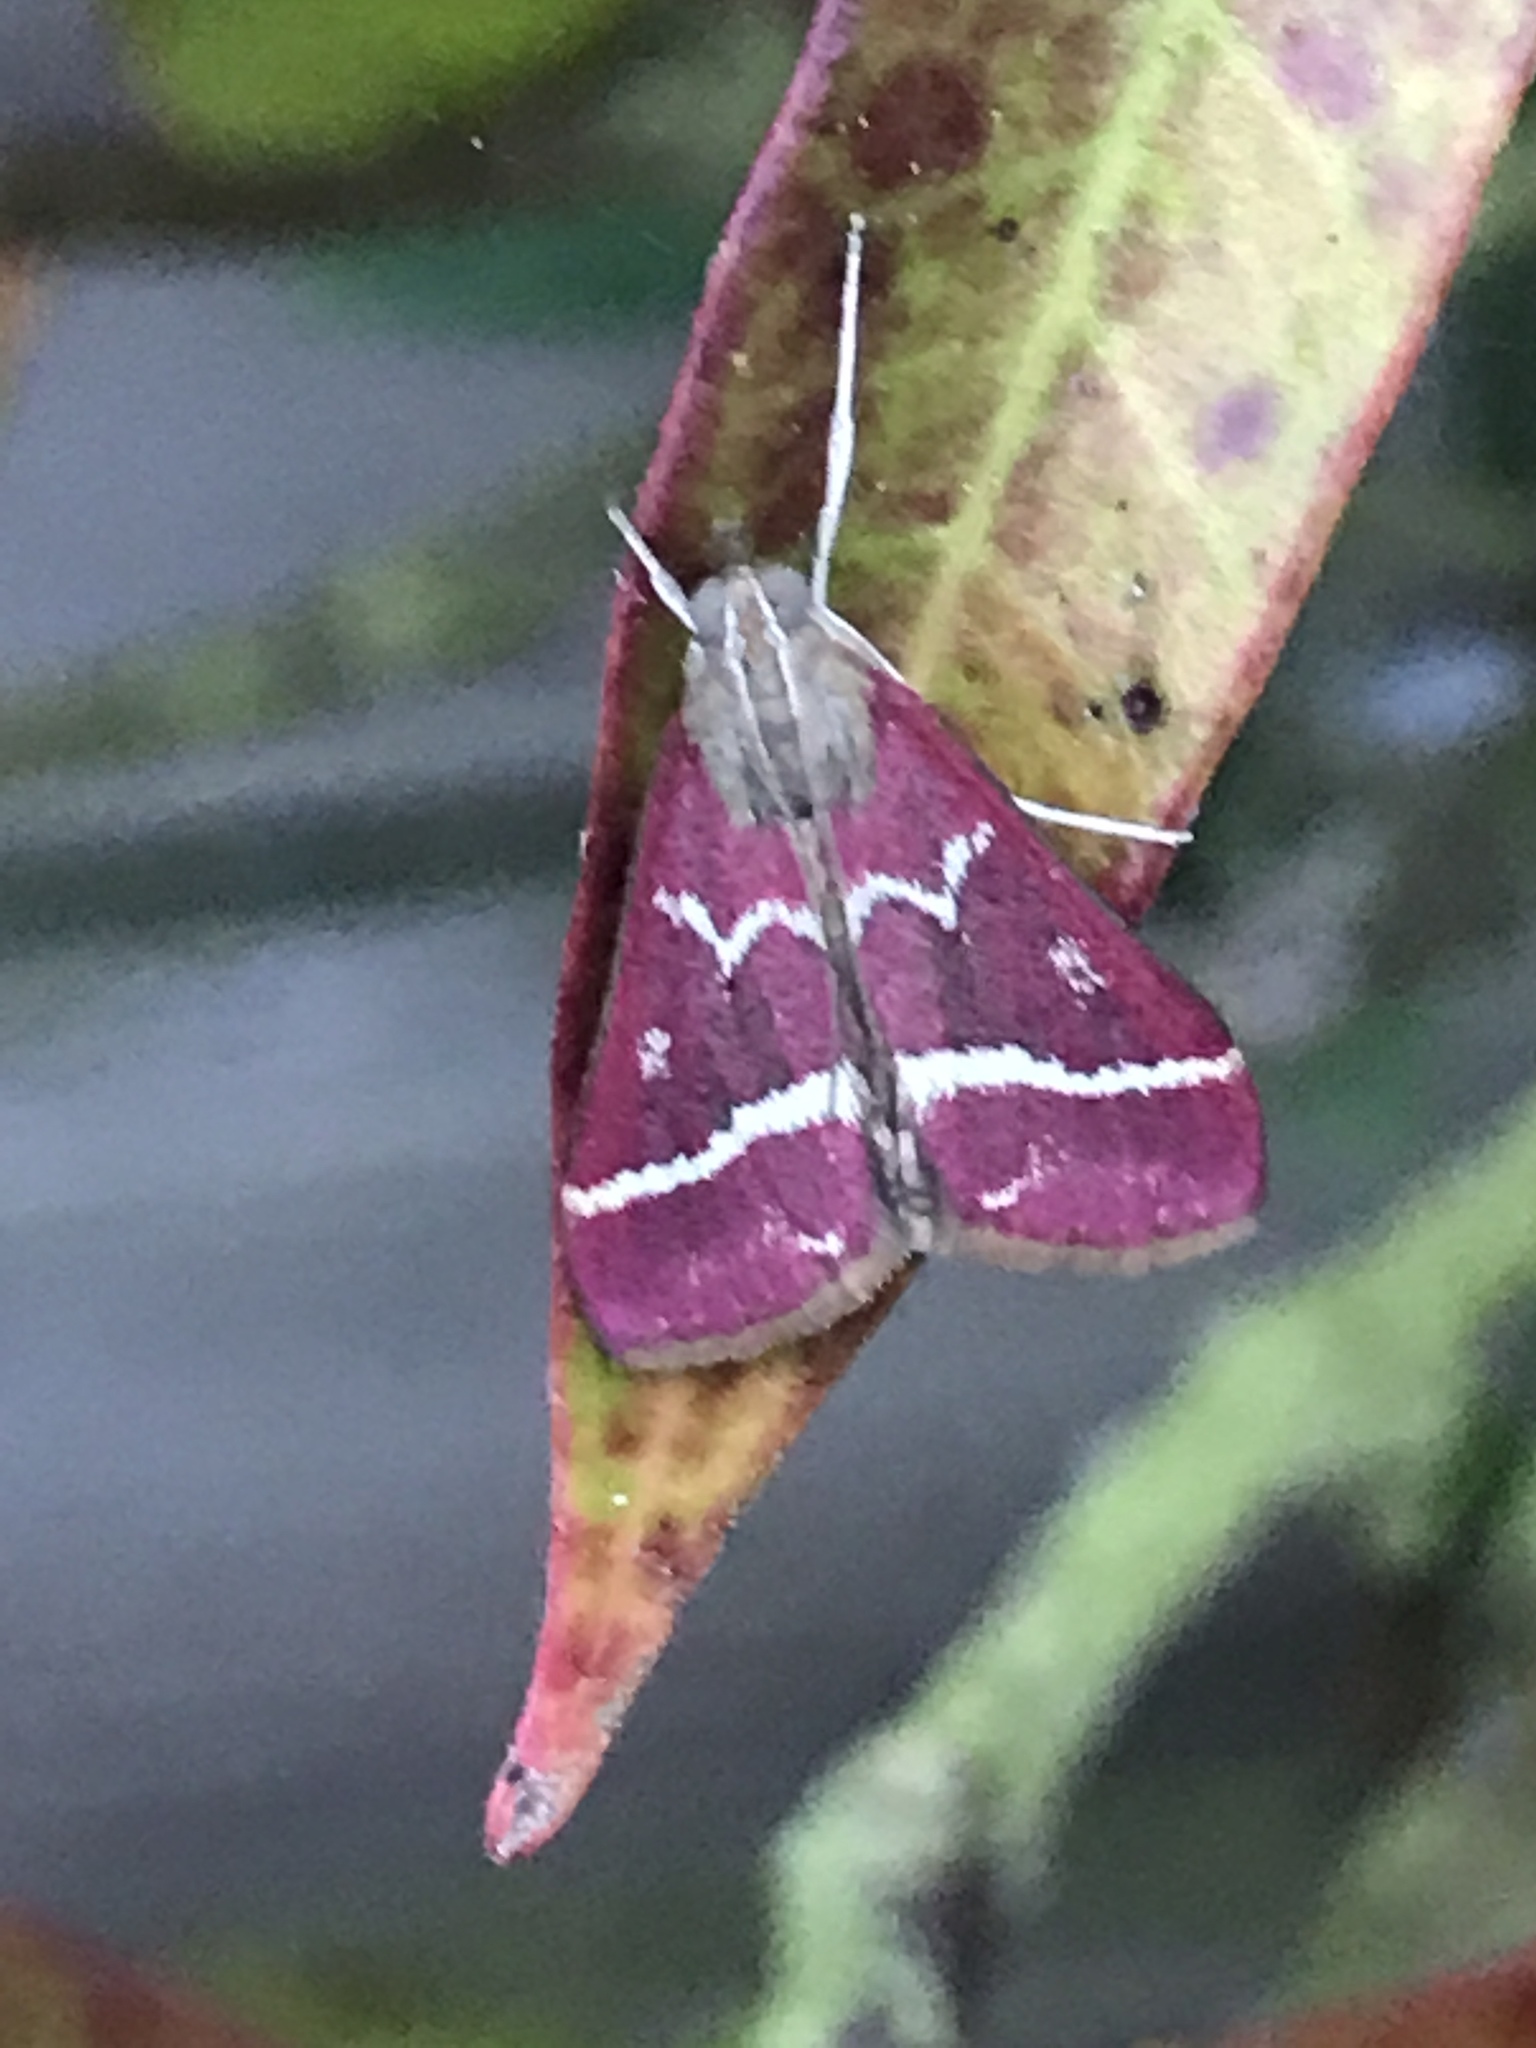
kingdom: Animalia
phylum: Arthropoda
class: Insecta
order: Lepidoptera
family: Crambidae
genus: Pyrausta
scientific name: Pyrausta volupialis
